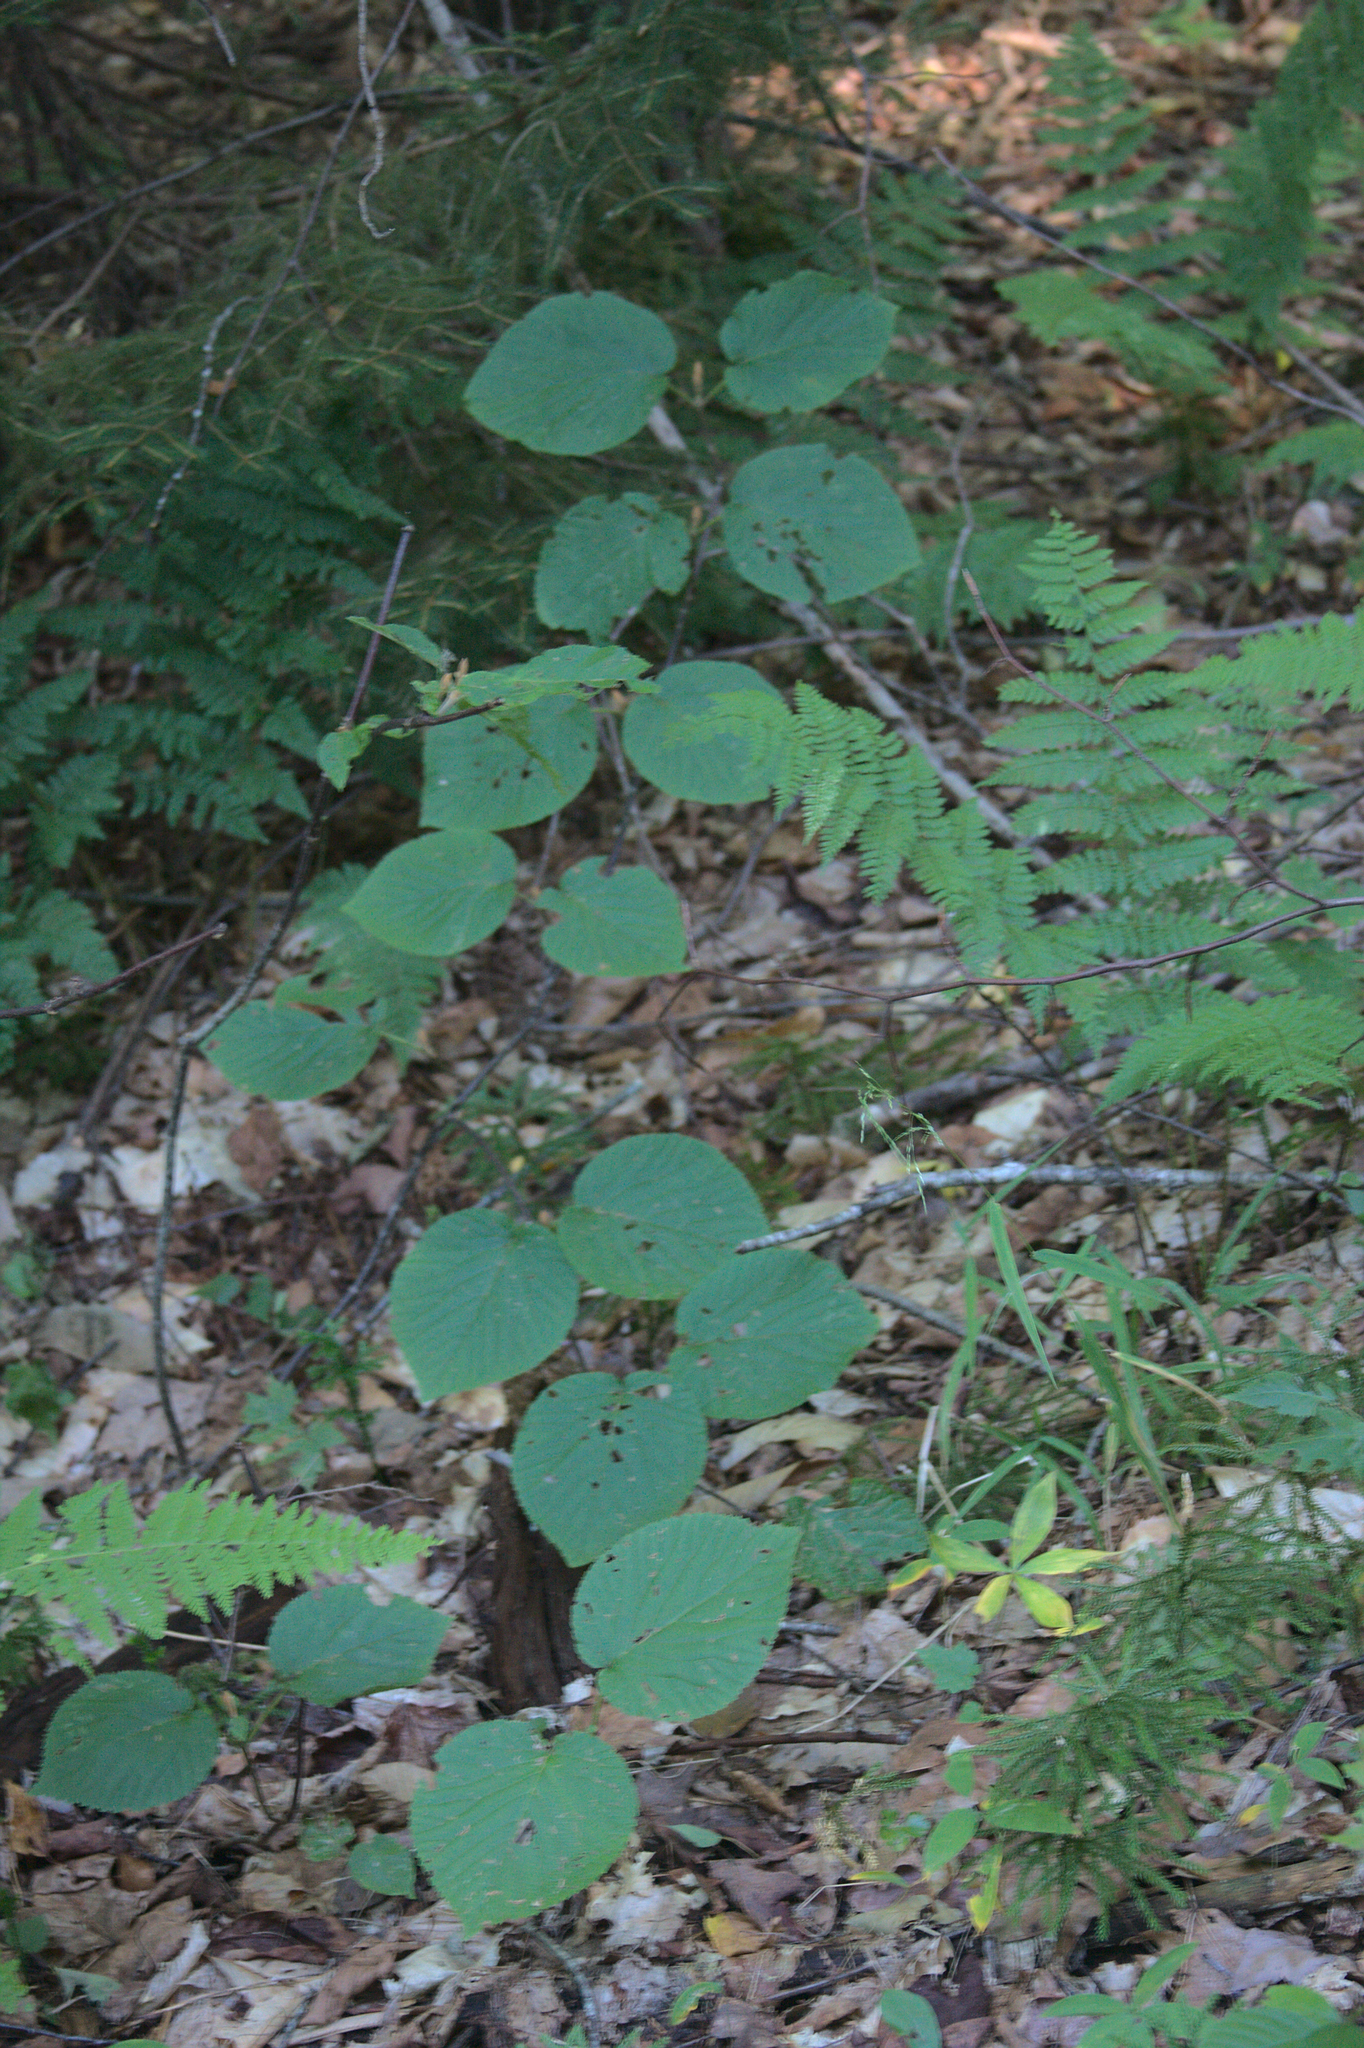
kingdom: Plantae
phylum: Tracheophyta
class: Magnoliopsida
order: Dipsacales
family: Viburnaceae
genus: Viburnum
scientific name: Viburnum lantanoides
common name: Hobblebush
